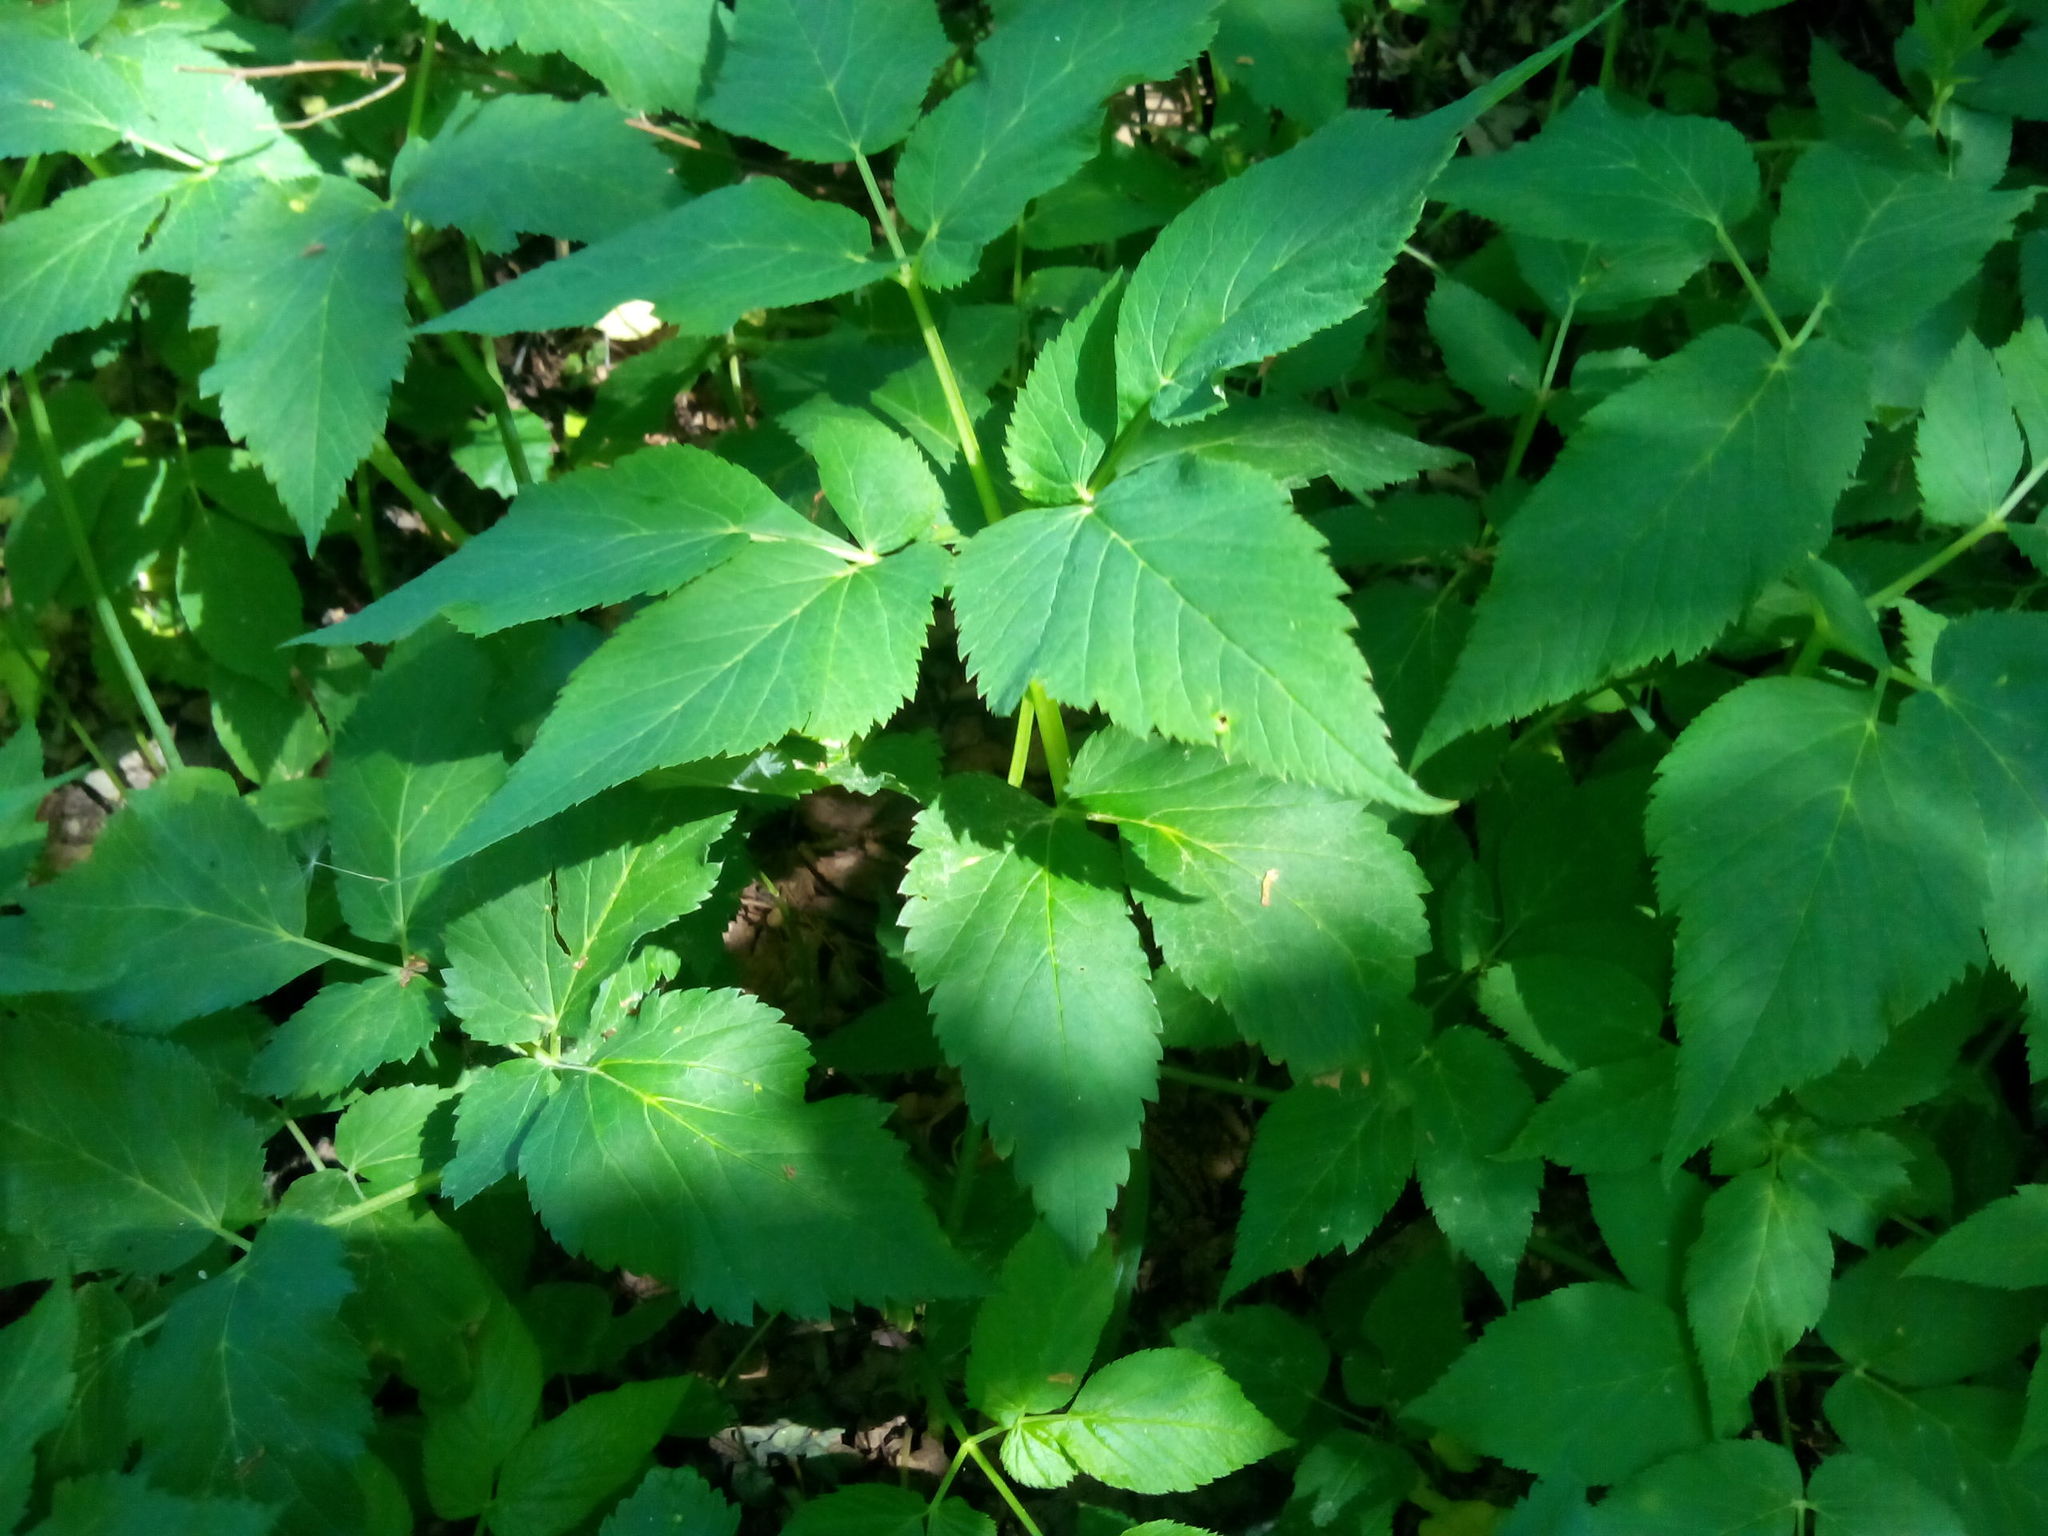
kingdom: Plantae
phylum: Tracheophyta
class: Magnoliopsida
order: Apiales
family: Apiaceae
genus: Aegopodium
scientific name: Aegopodium podagraria
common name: Ground-elder
